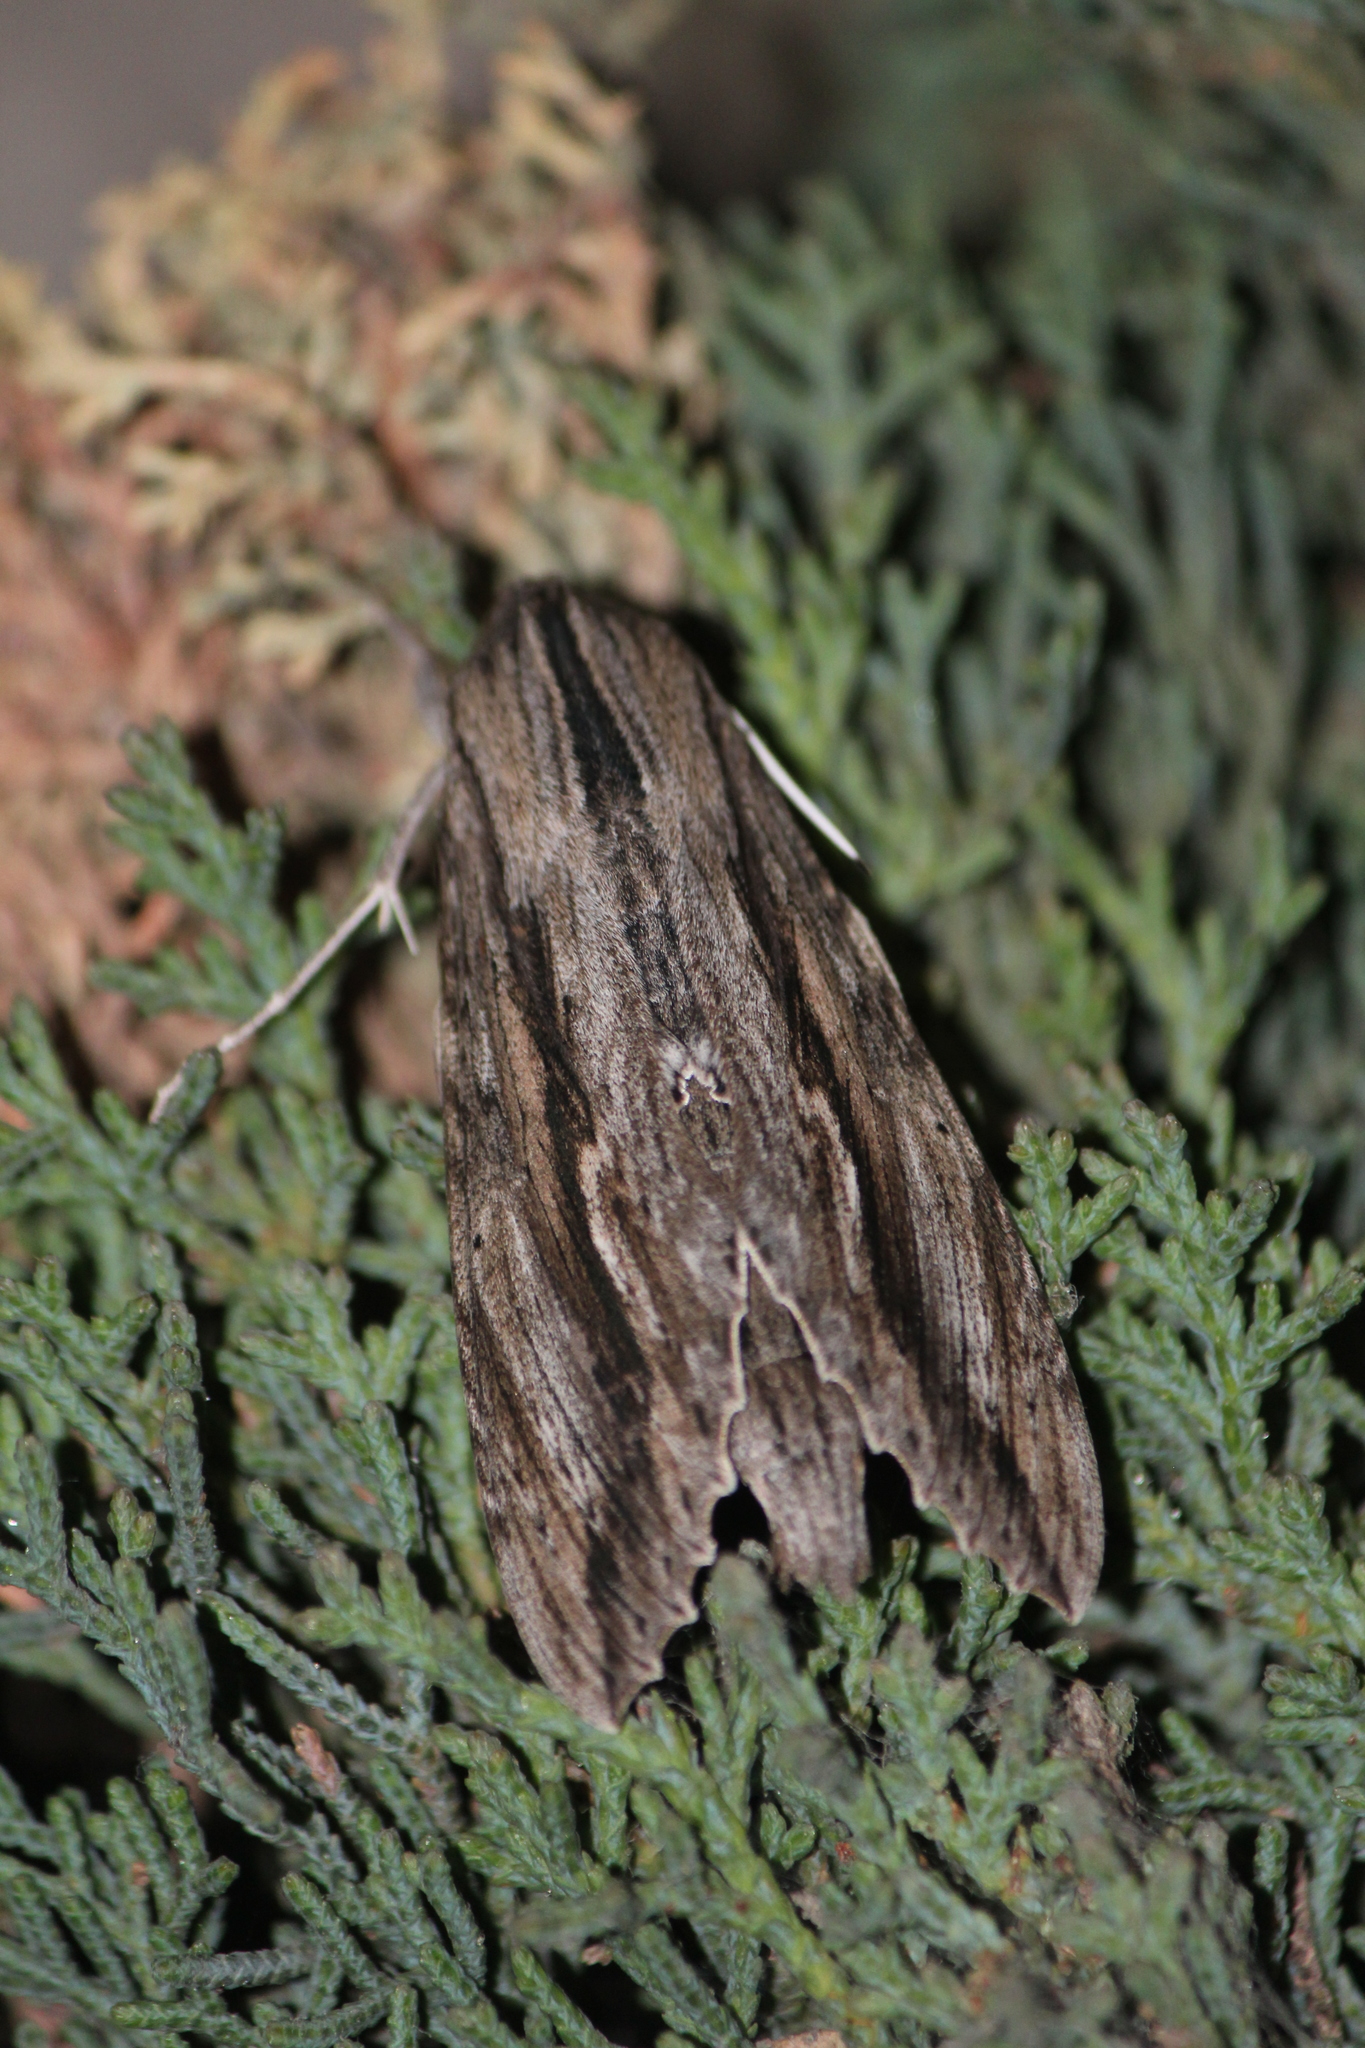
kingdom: Animalia
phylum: Arthropoda
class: Insecta
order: Lepidoptera
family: Sphingidae
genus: Erinnyis
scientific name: Erinnyis obscura
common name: Obscure sphinx
